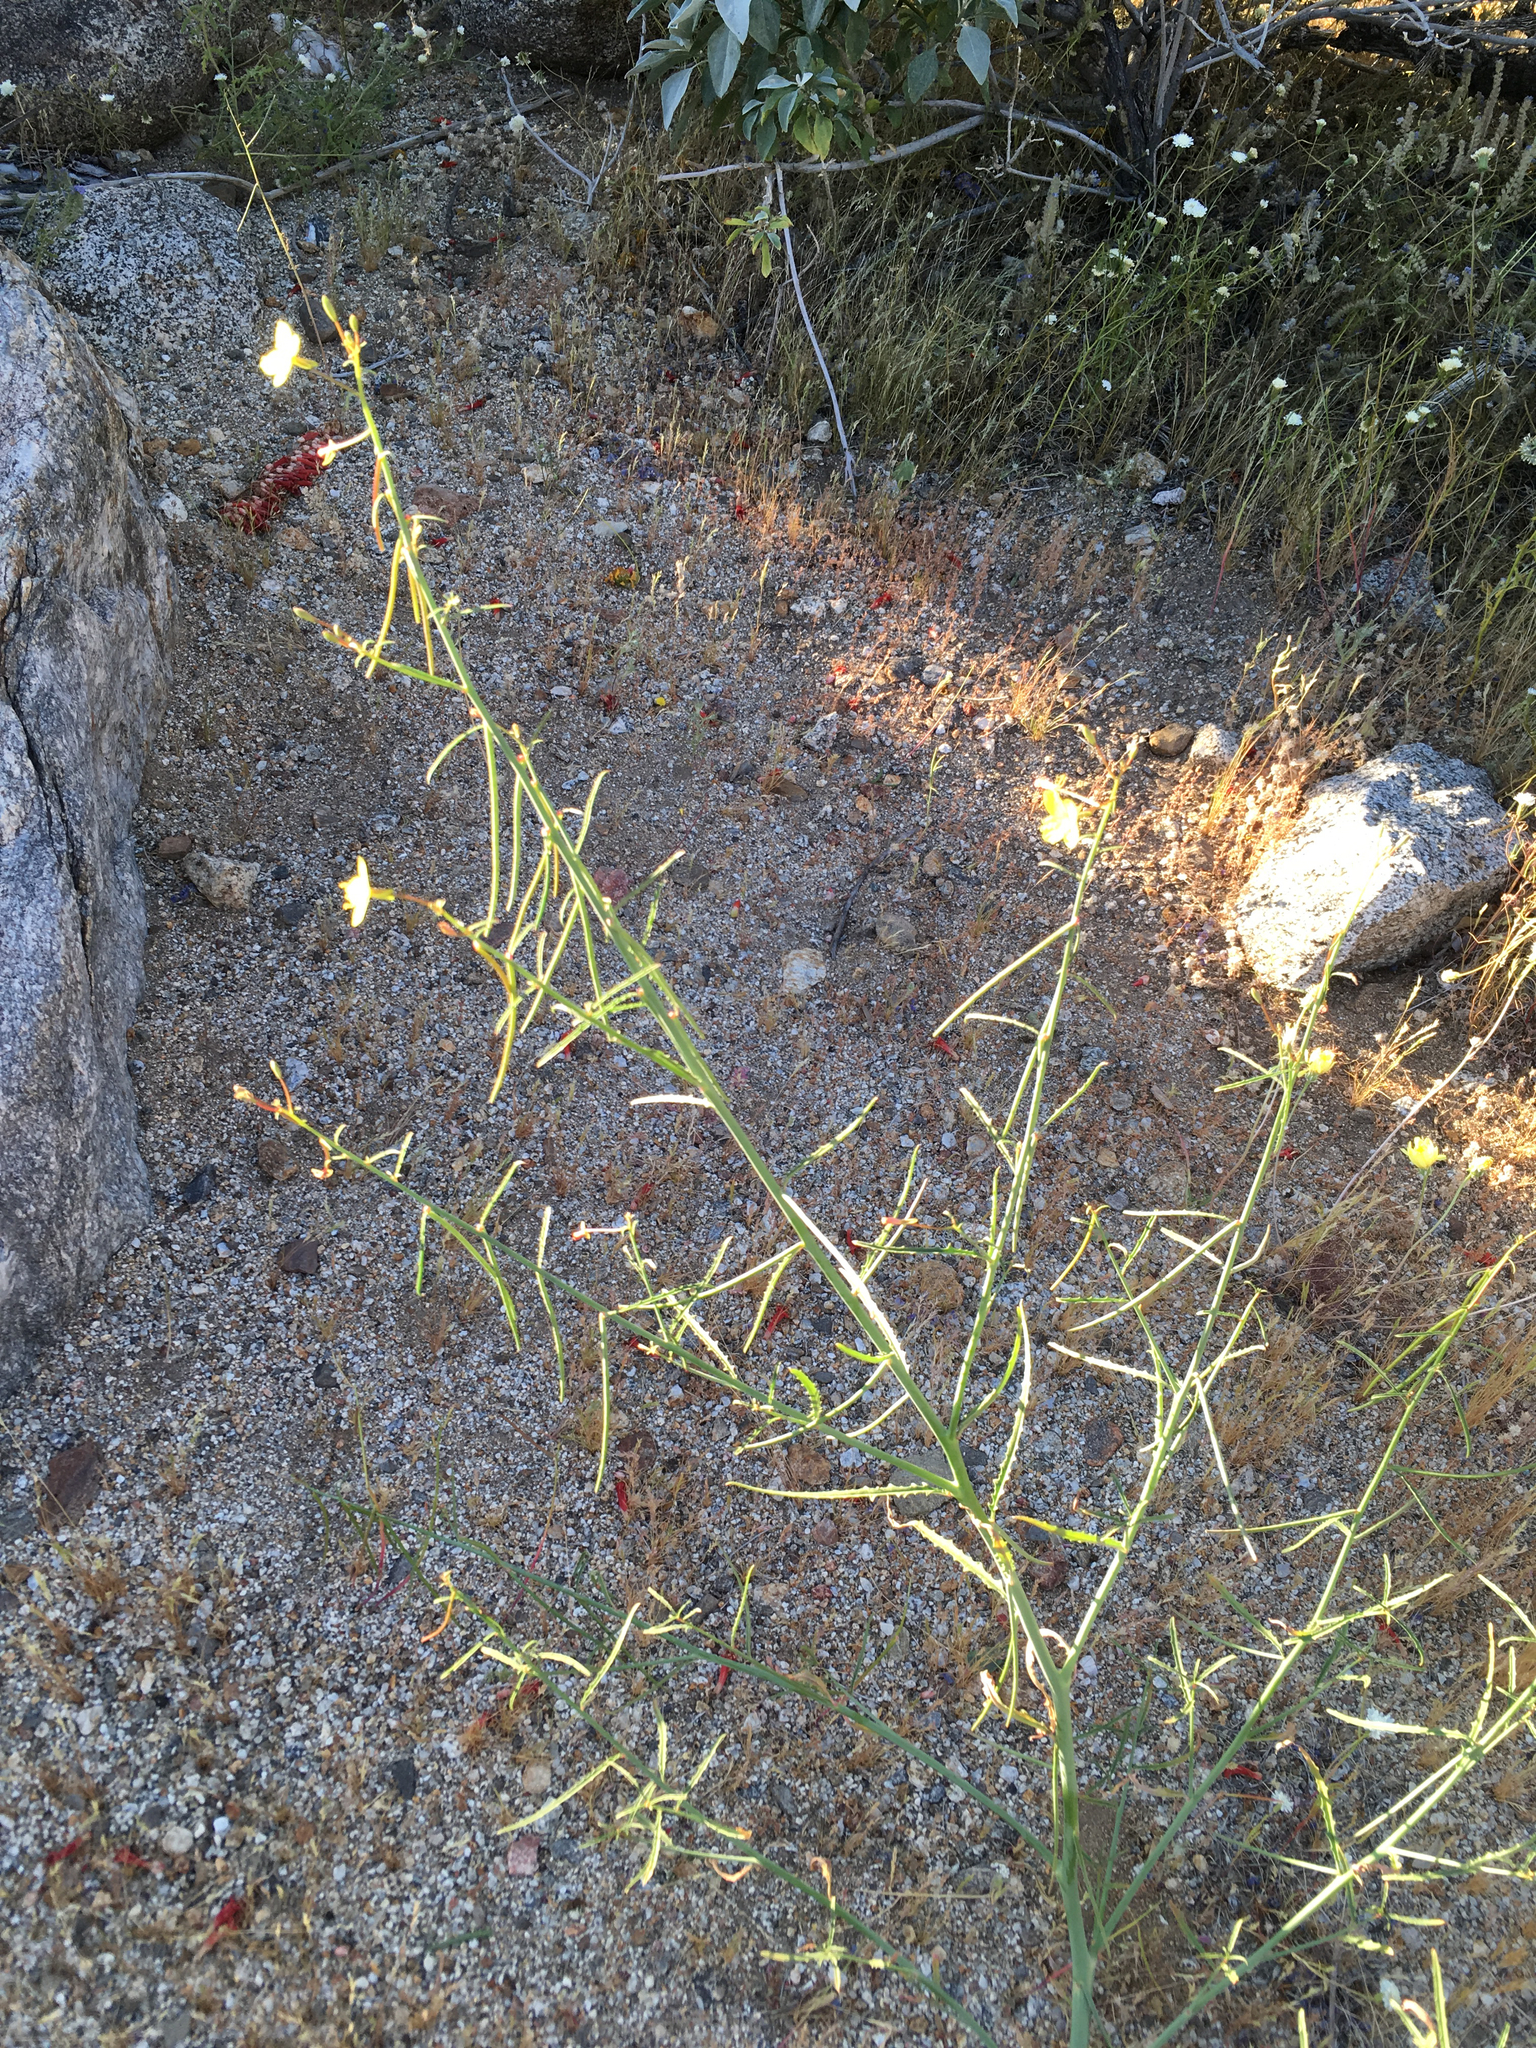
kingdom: Plantae
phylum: Tracheophyta
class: Magnoliopsida
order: Myrtales
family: Onagraceae
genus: Eulobus
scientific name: Eulobus californicus
